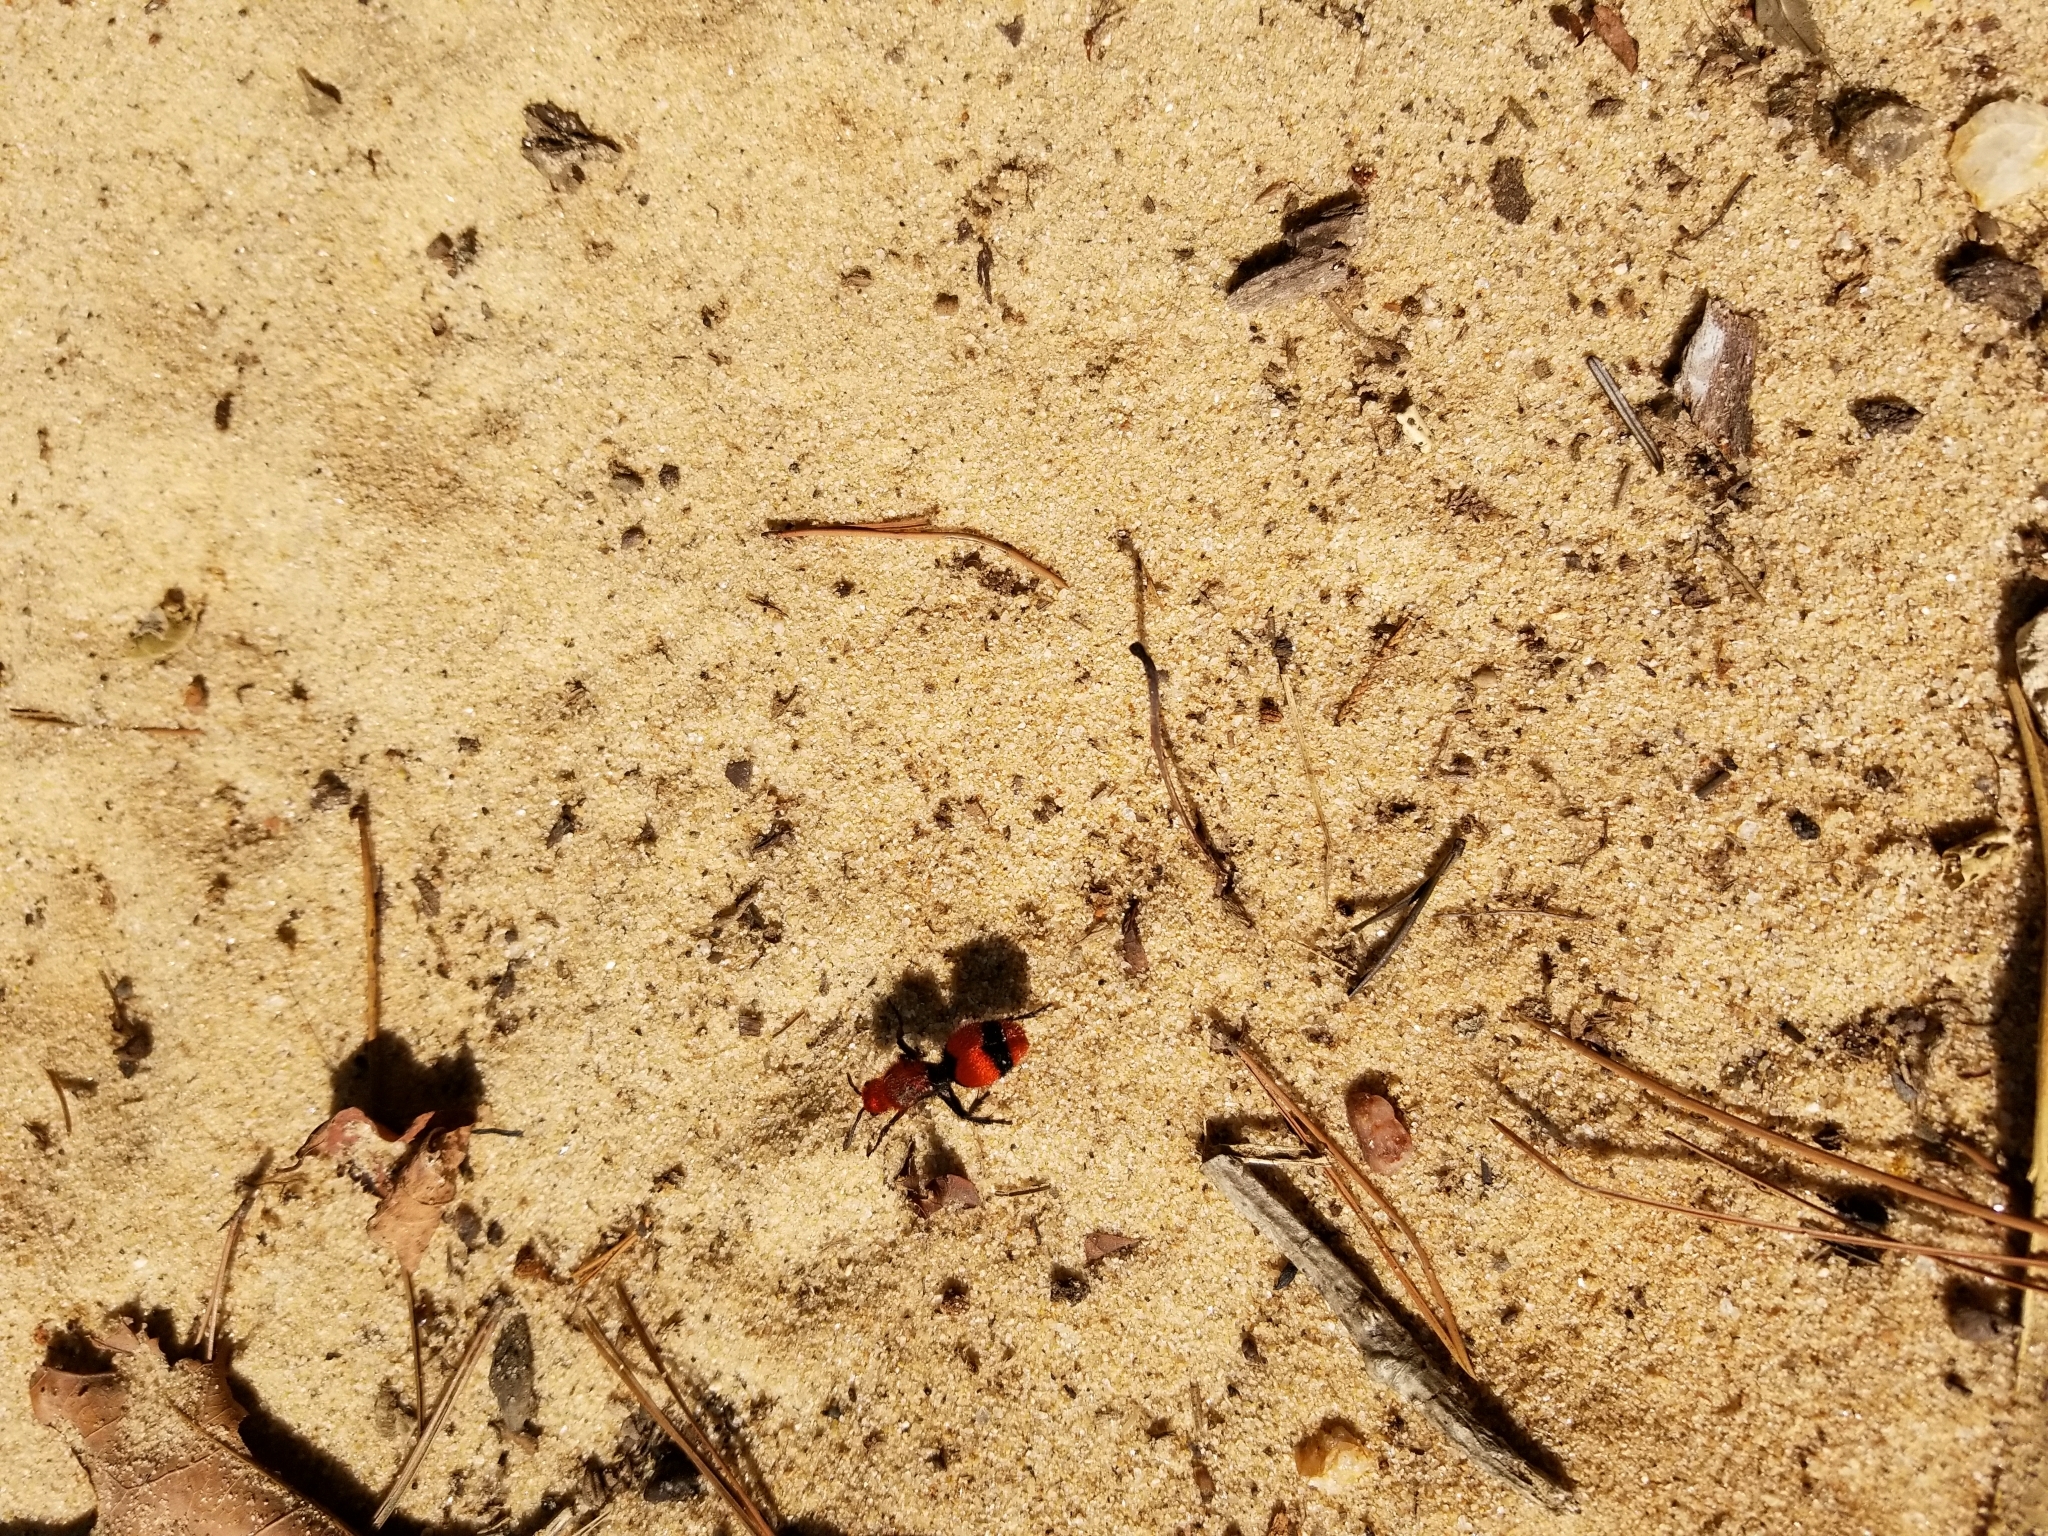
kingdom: Animalia
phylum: Arthropoda
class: Insecta
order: Hymenoptera
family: Mutillidae
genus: Dasymutilla
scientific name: Dasymutilla occidentalis
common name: Common eastern velvet ant
